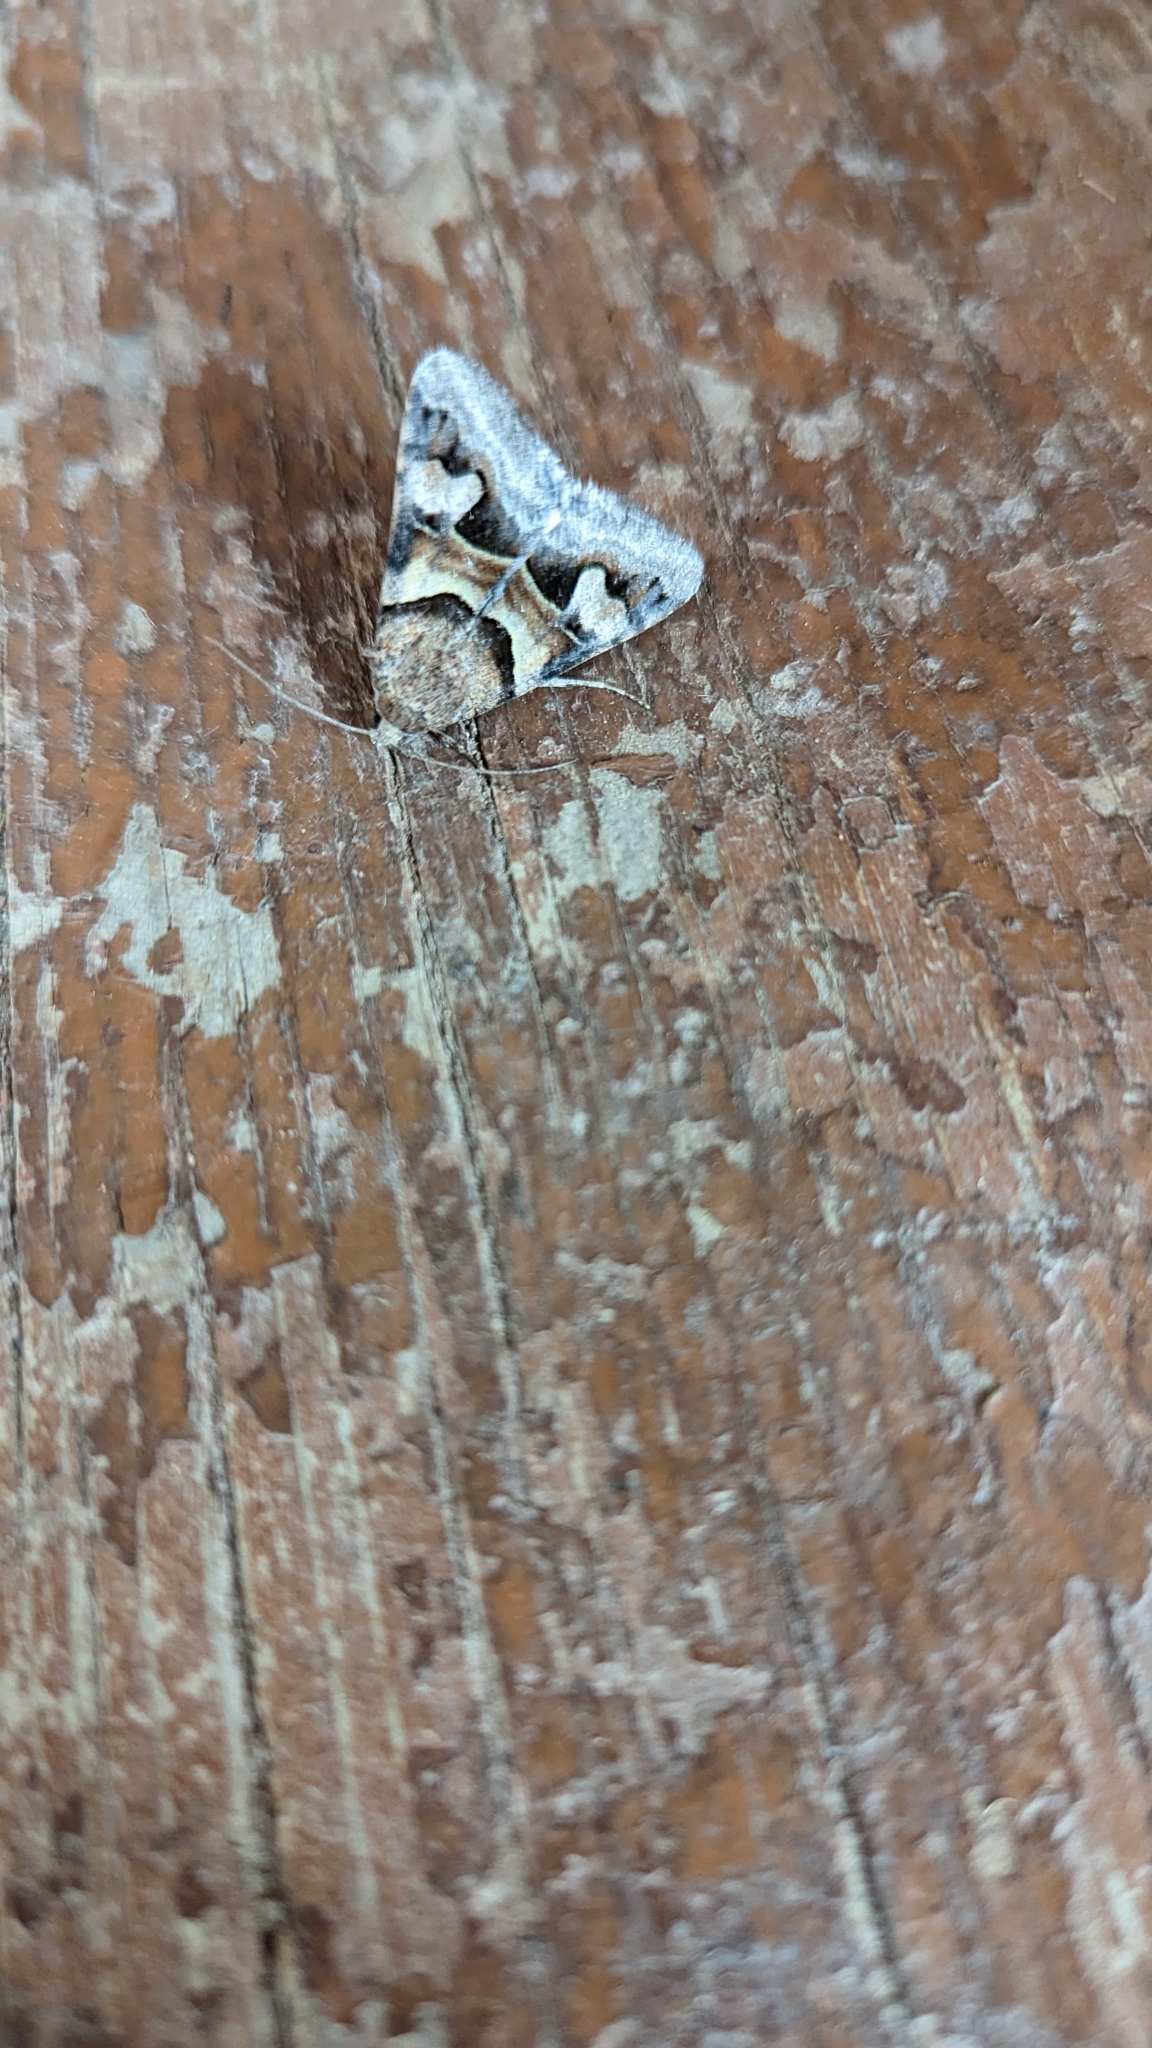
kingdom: Animalia
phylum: Arthropoda
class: Insecta
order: Lepidoptera
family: Erebidae
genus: Drasteria
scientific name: Drasteria pallescens
